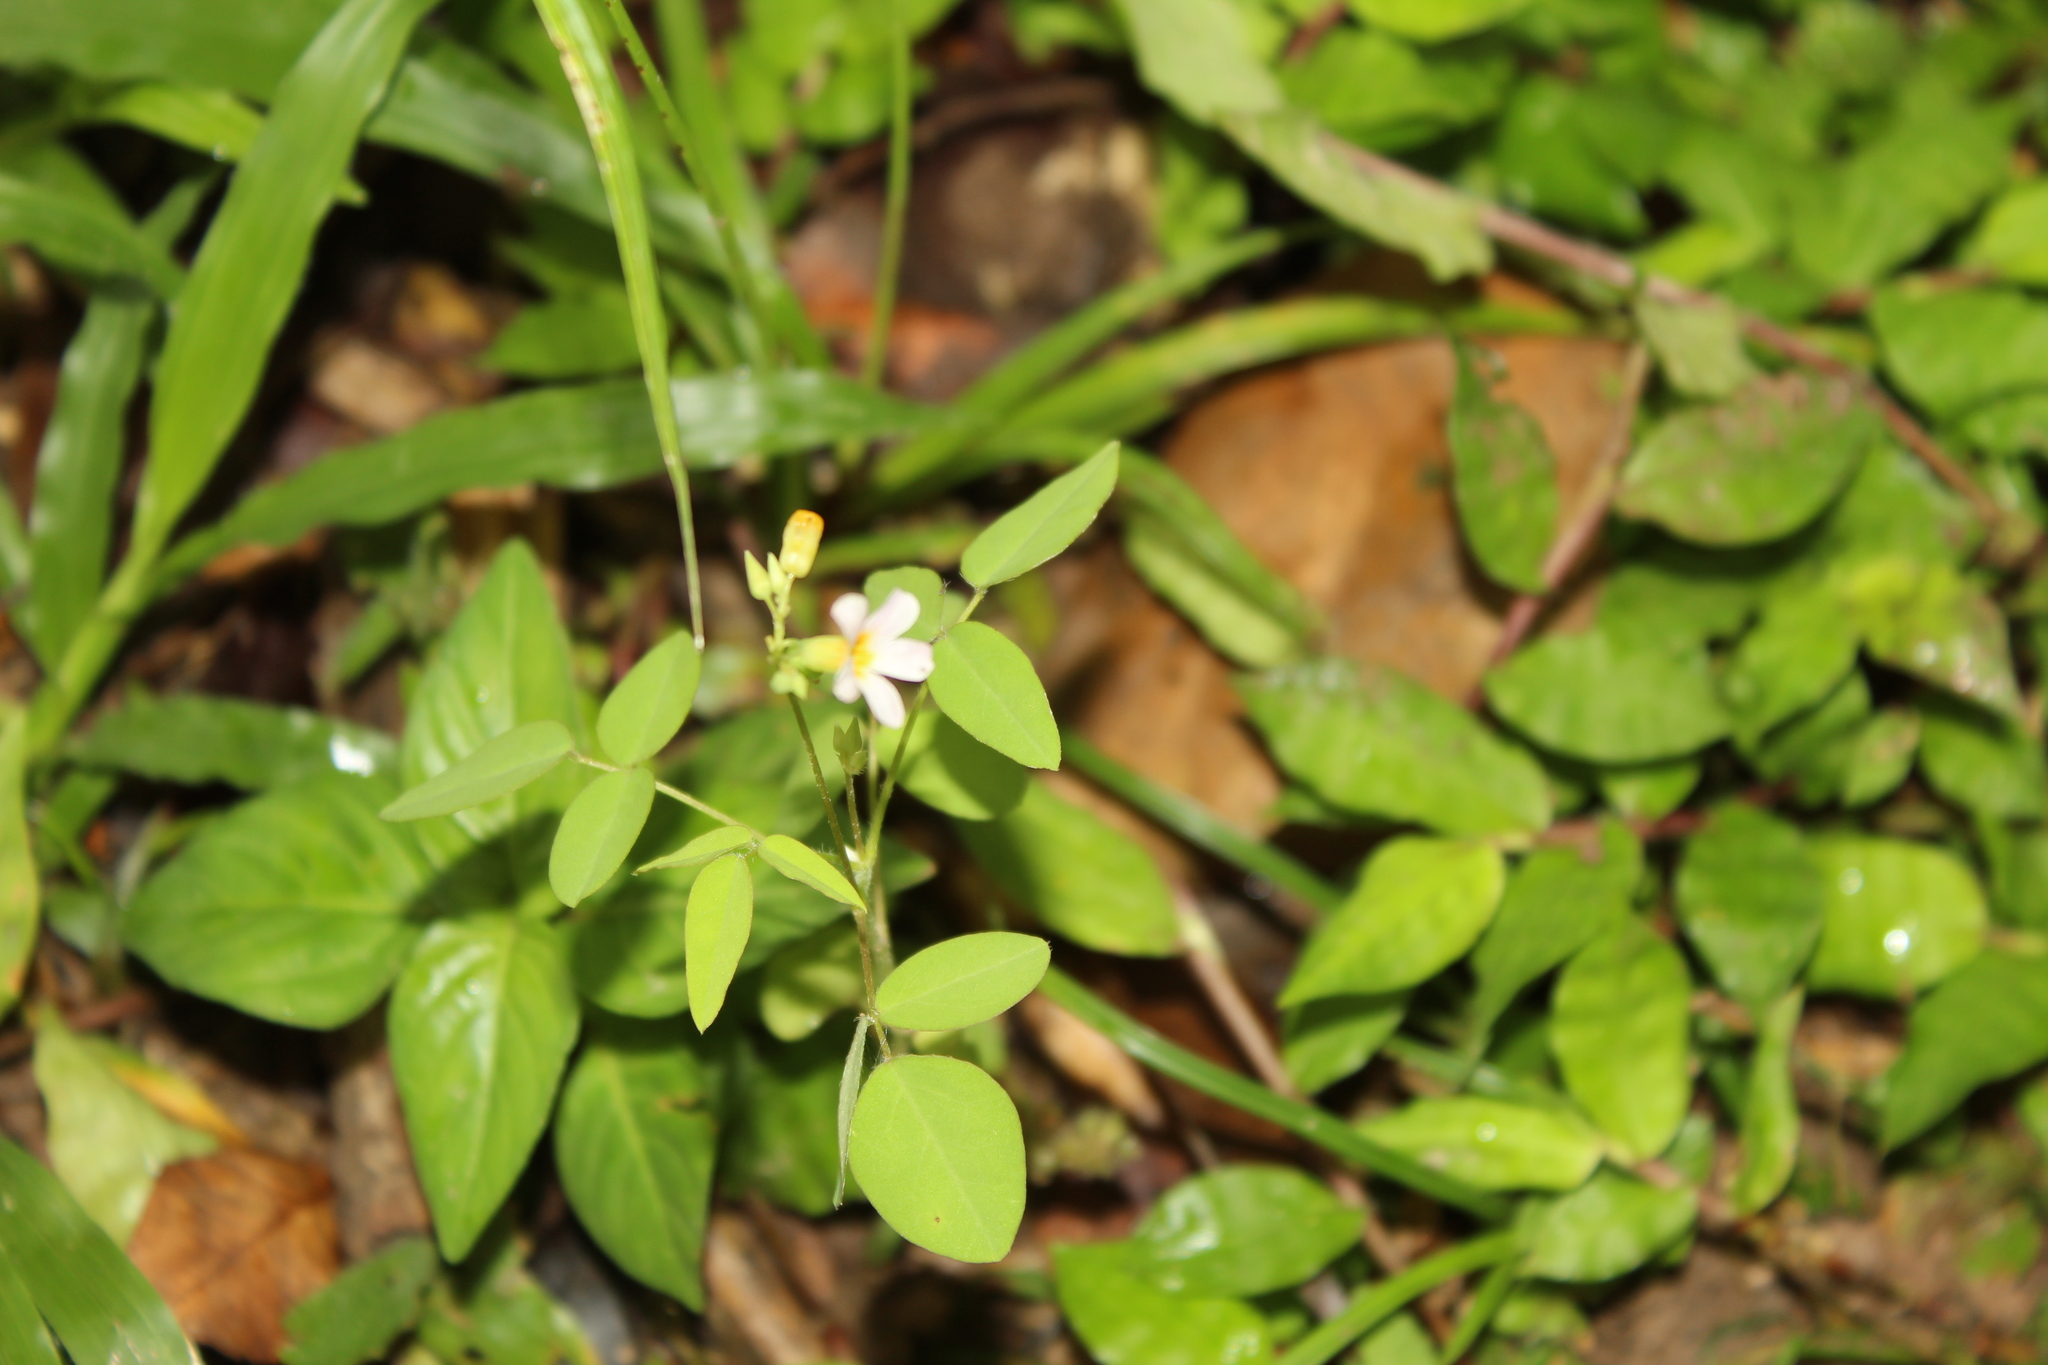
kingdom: Plantae
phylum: Tracheophyta
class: Magnoliopsida
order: Oxalidales
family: Oxalidaceae
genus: Oxalis
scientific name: Oxalis barrelieri
